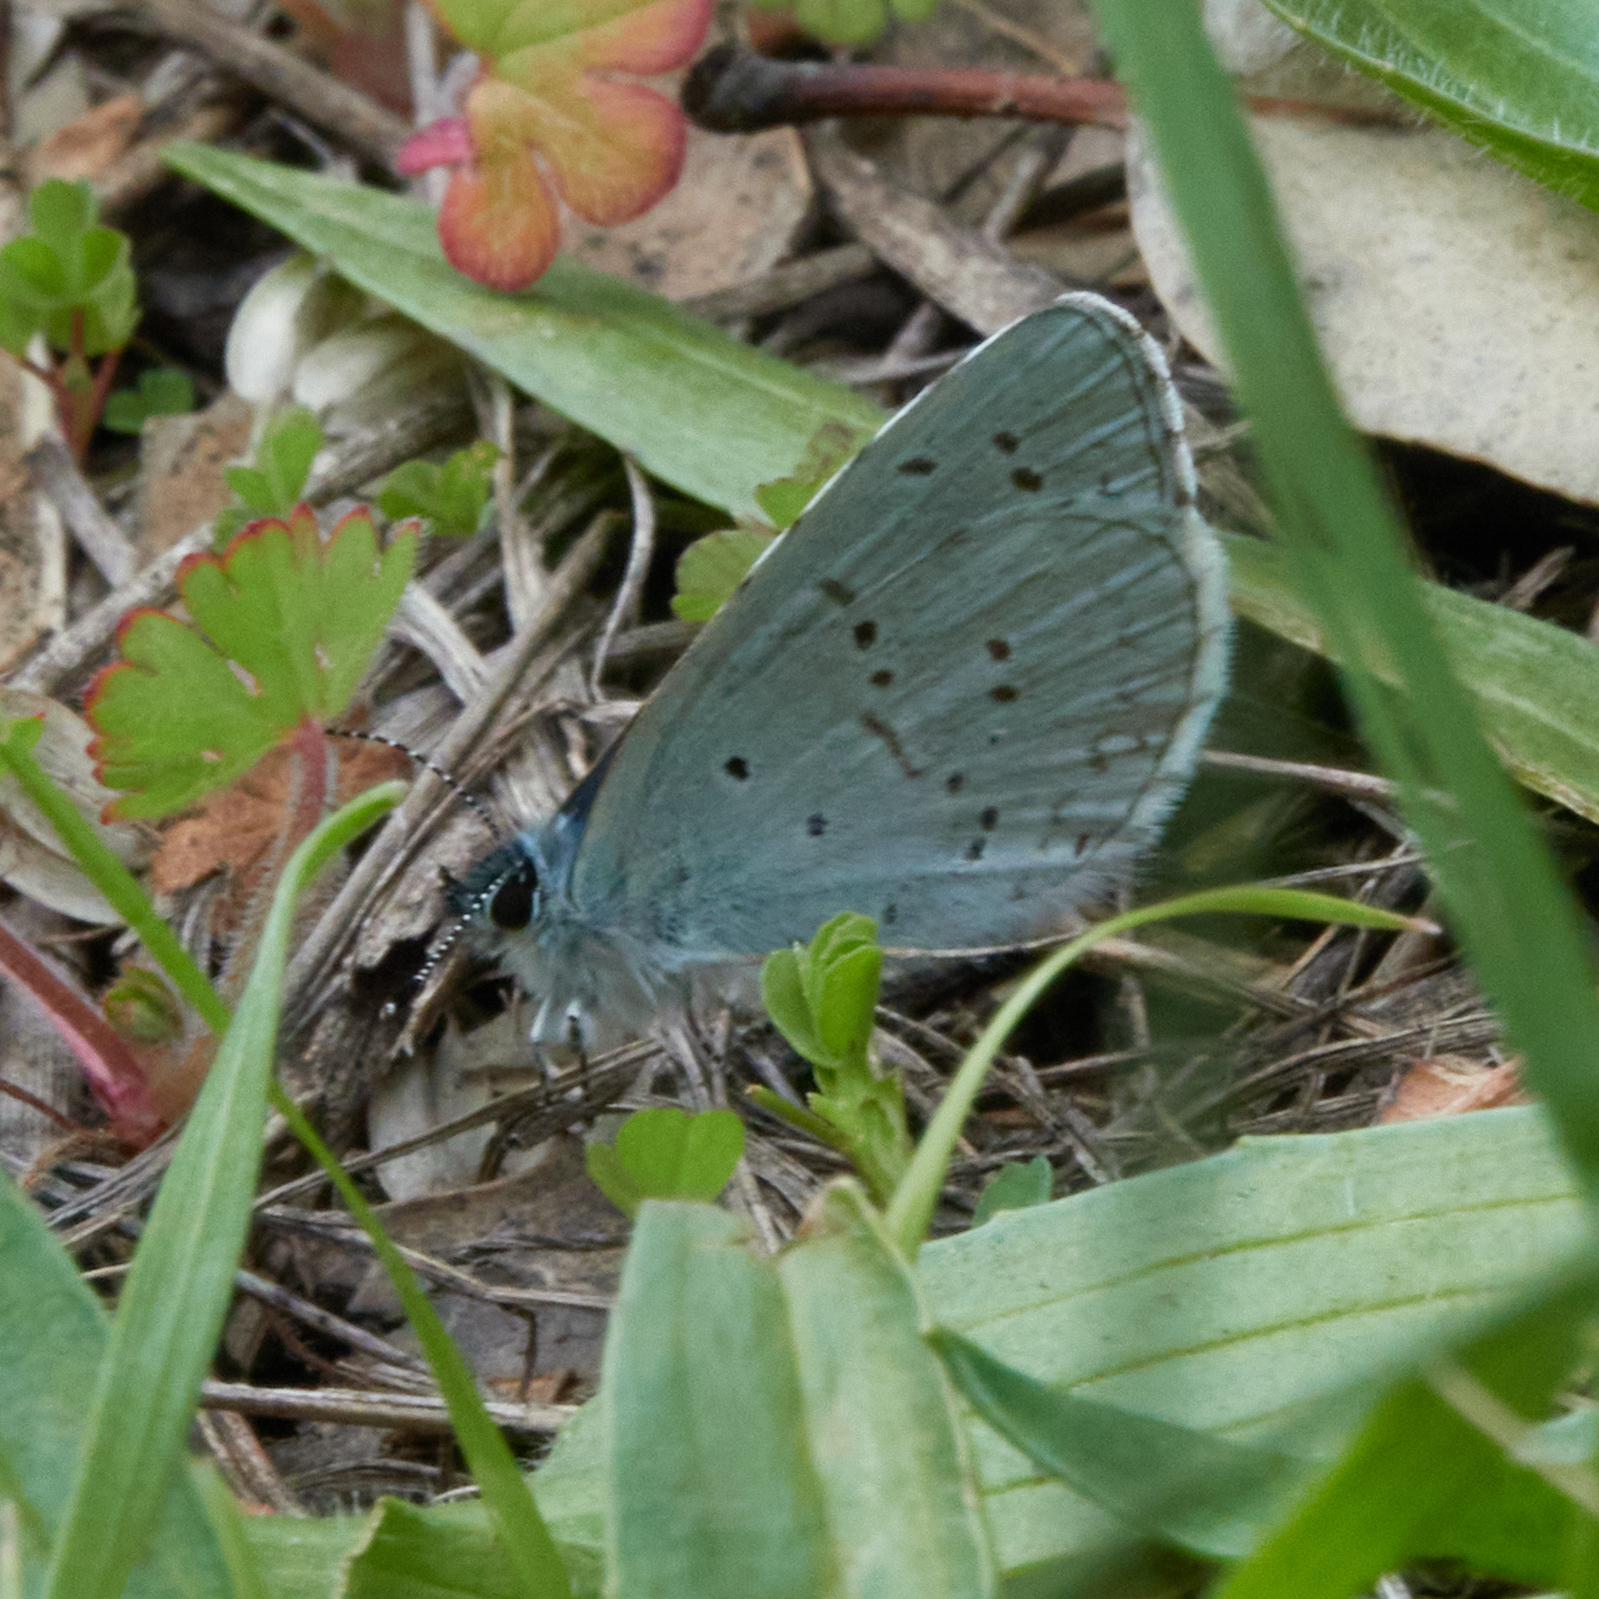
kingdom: Animalia
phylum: Arthropoda
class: Insecta
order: Lepidoptera
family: Lycaenidae
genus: Celastrina
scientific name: Celastrina ladon
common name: Spring azure
